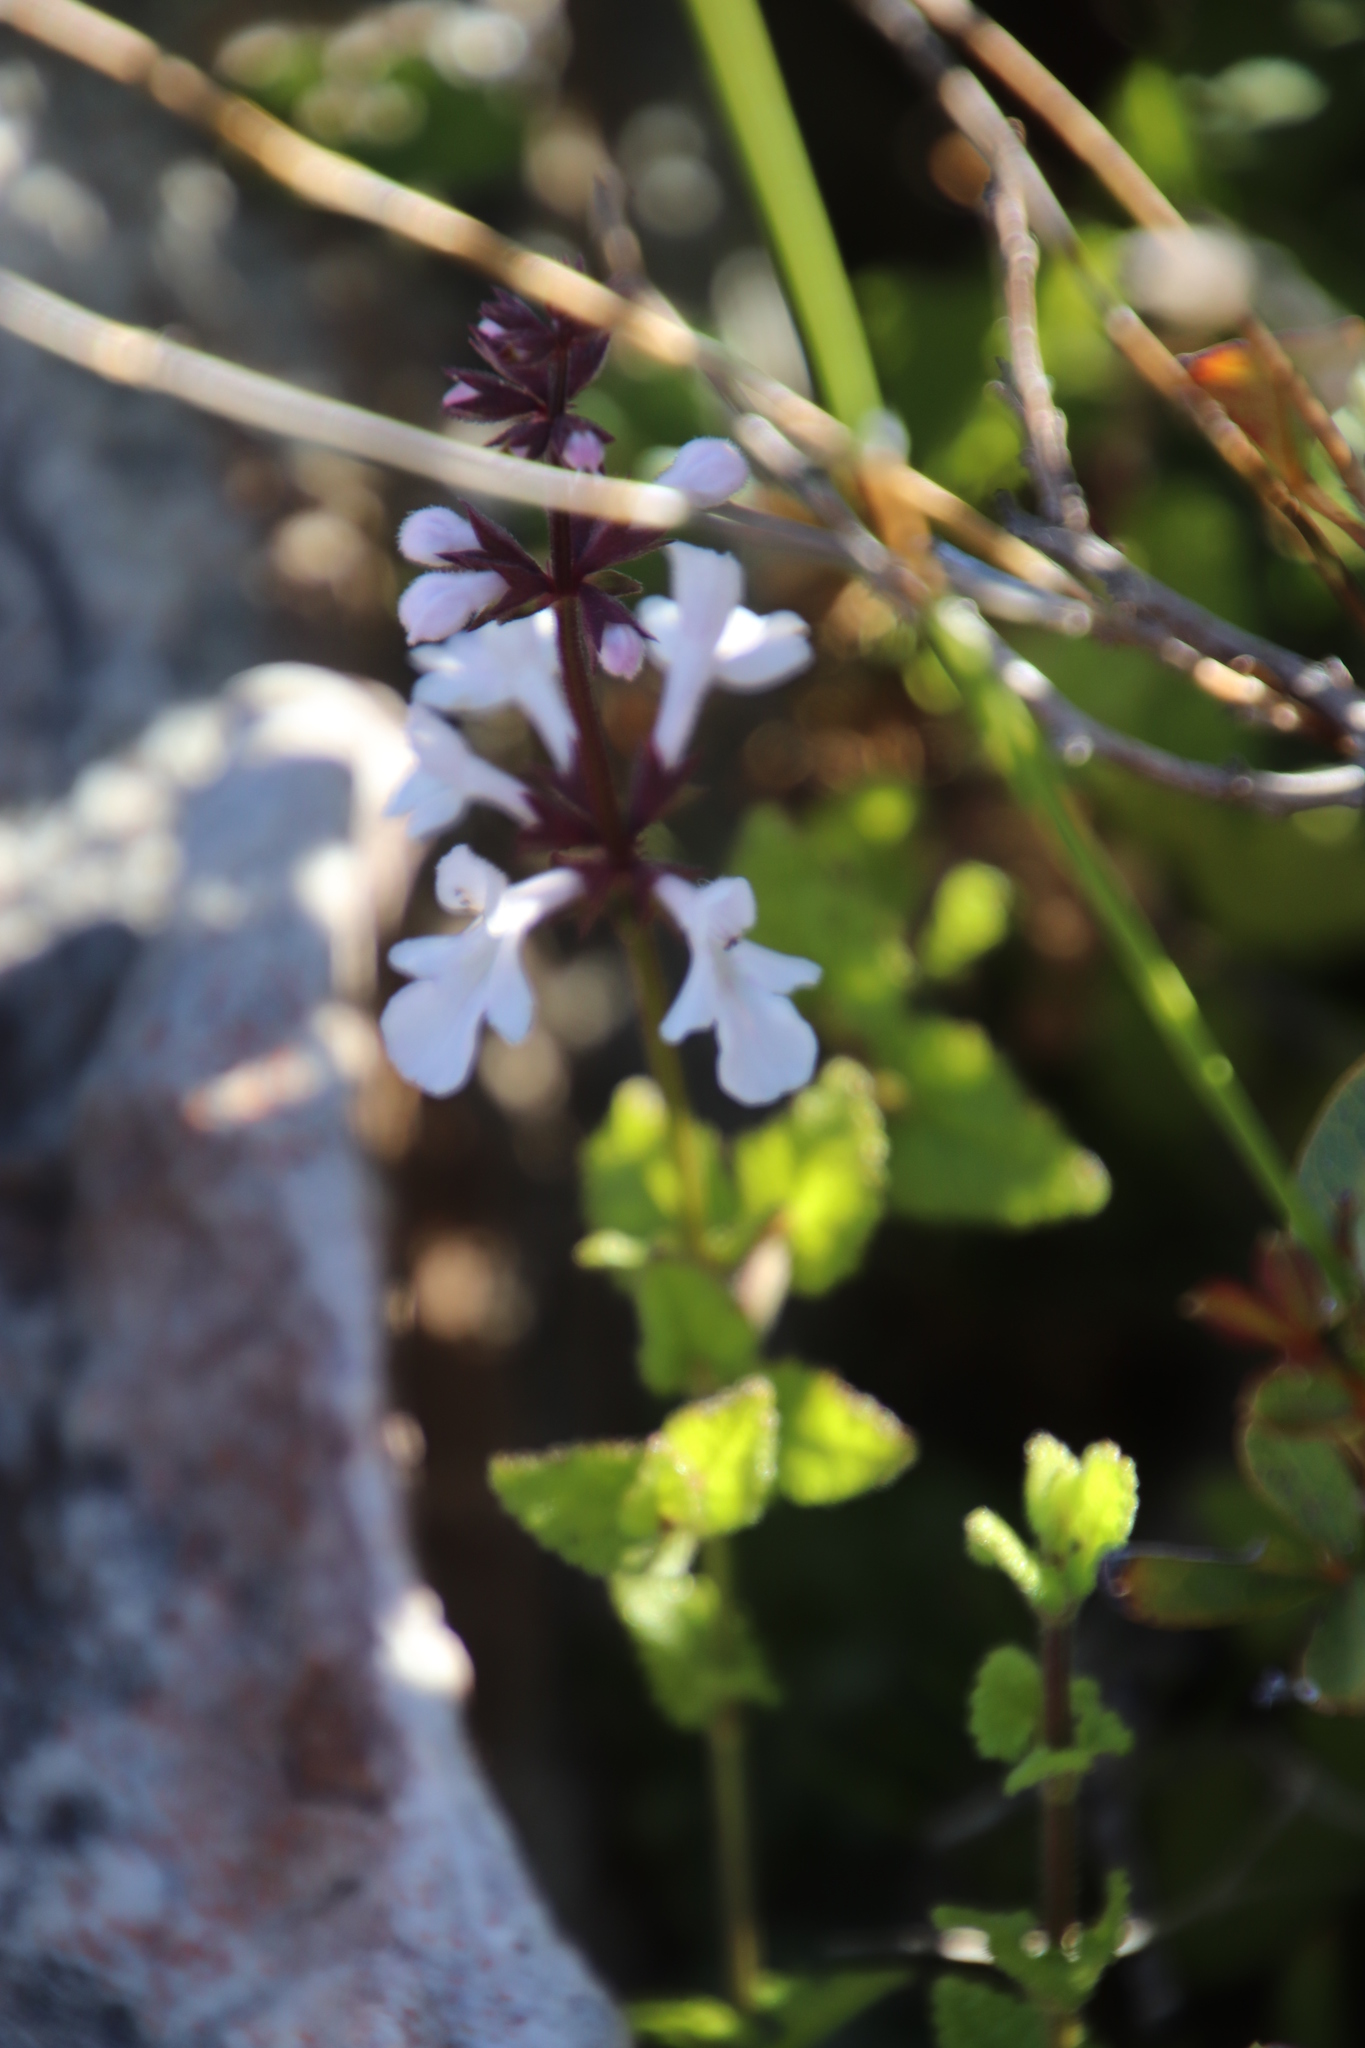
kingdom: Plantae
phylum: Tracheophyta
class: Magnoliopsida
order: Lamiales
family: Lamiaceae
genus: Stachys
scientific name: Stachys aethiopica
